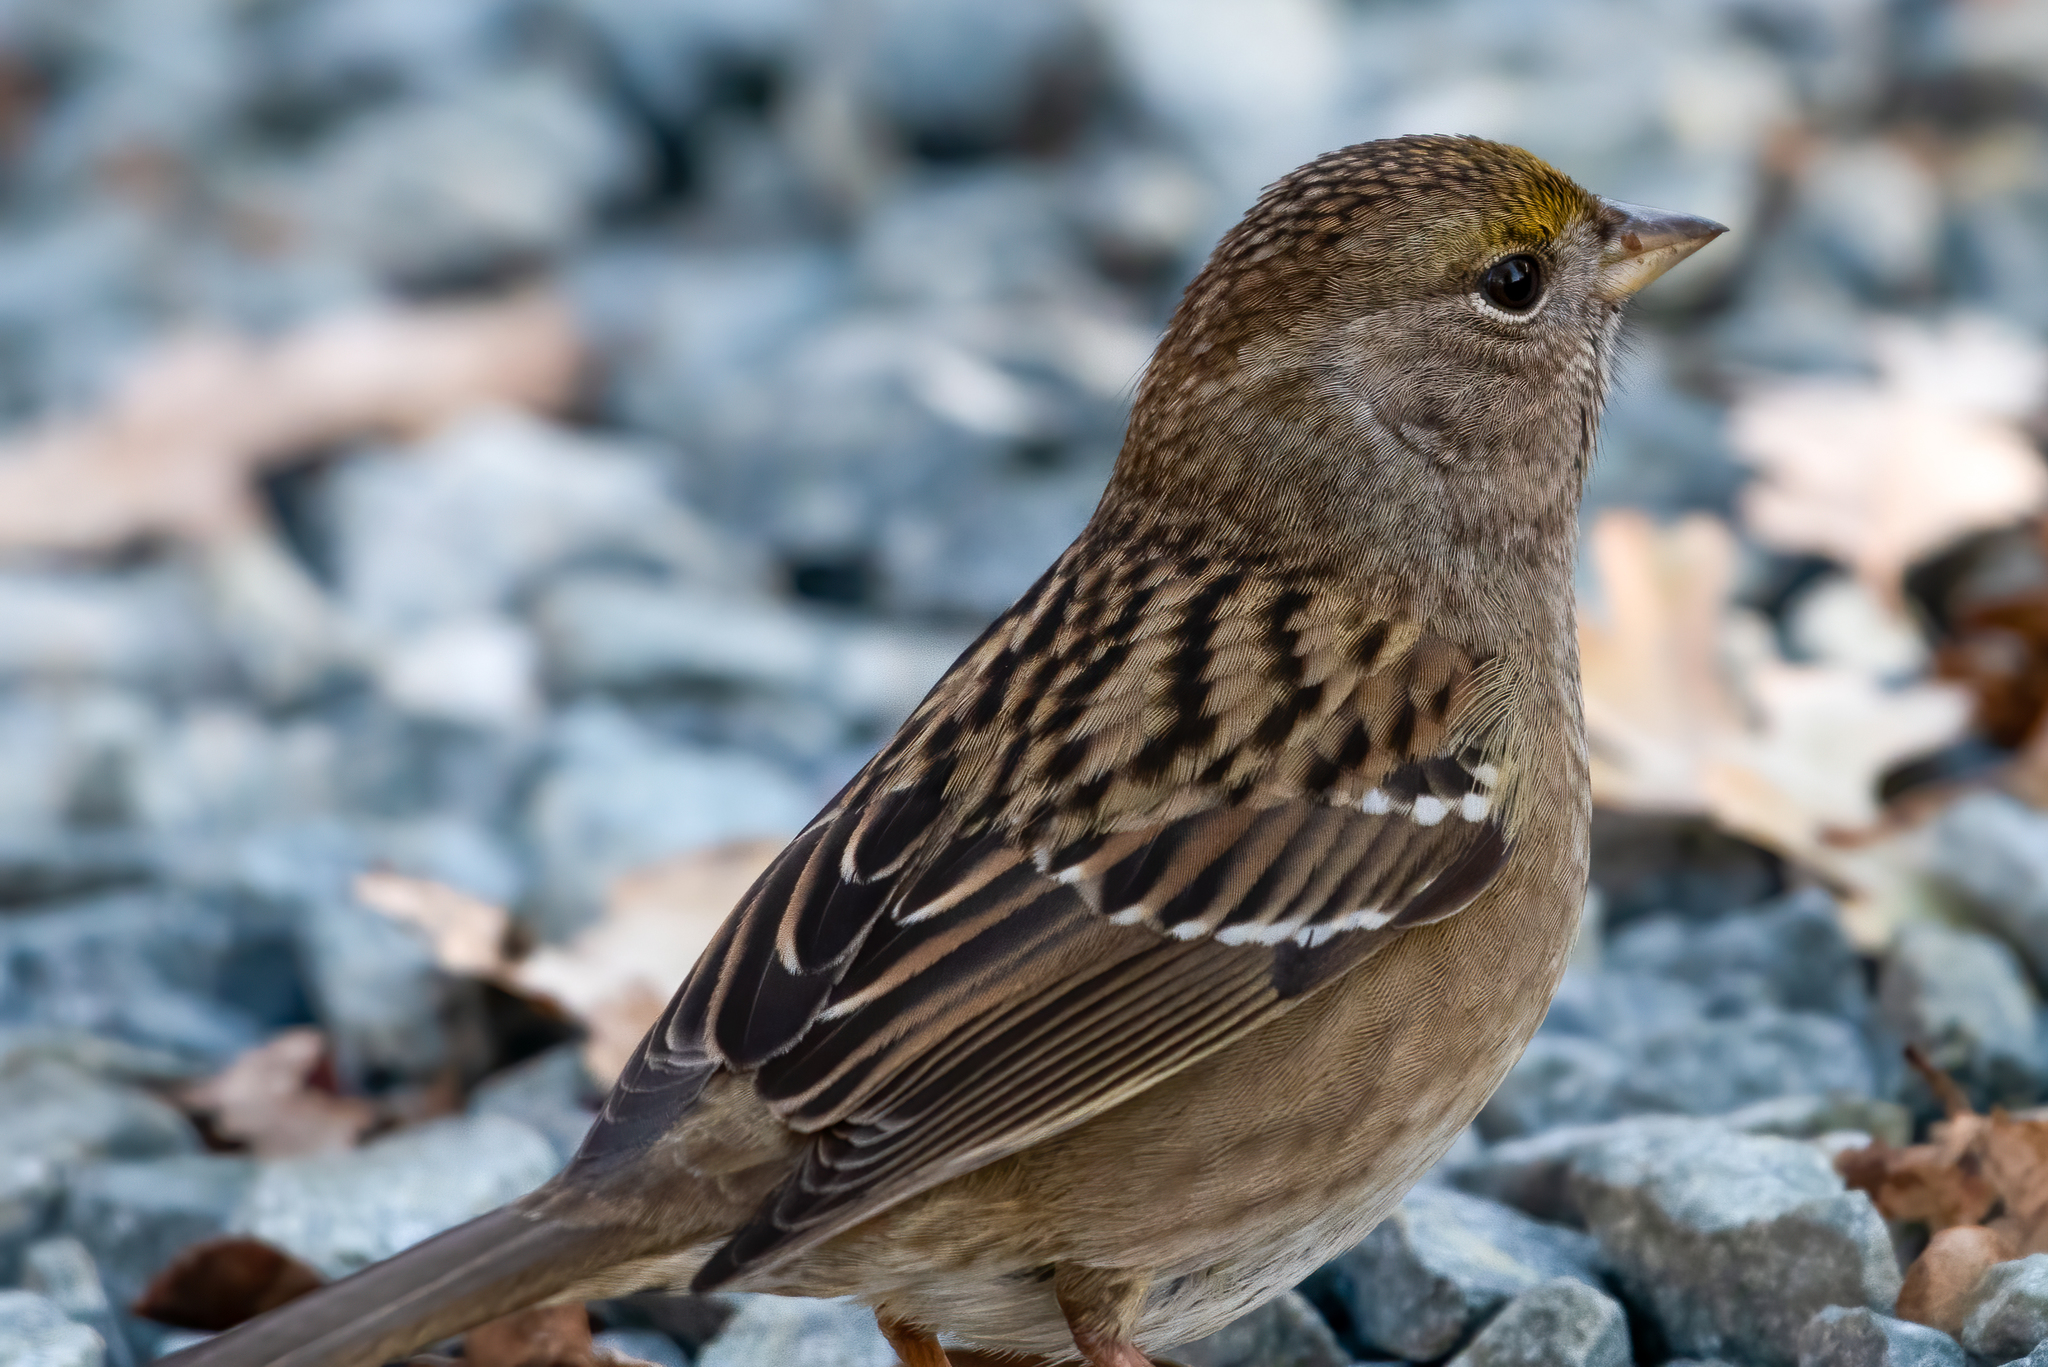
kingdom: Animalia
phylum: Chordata
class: Aves
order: Passeriformes
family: Passerellidae
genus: Zonotrichia
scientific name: Zonotrichia atricapilla
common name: Golden-crowned sparrow
